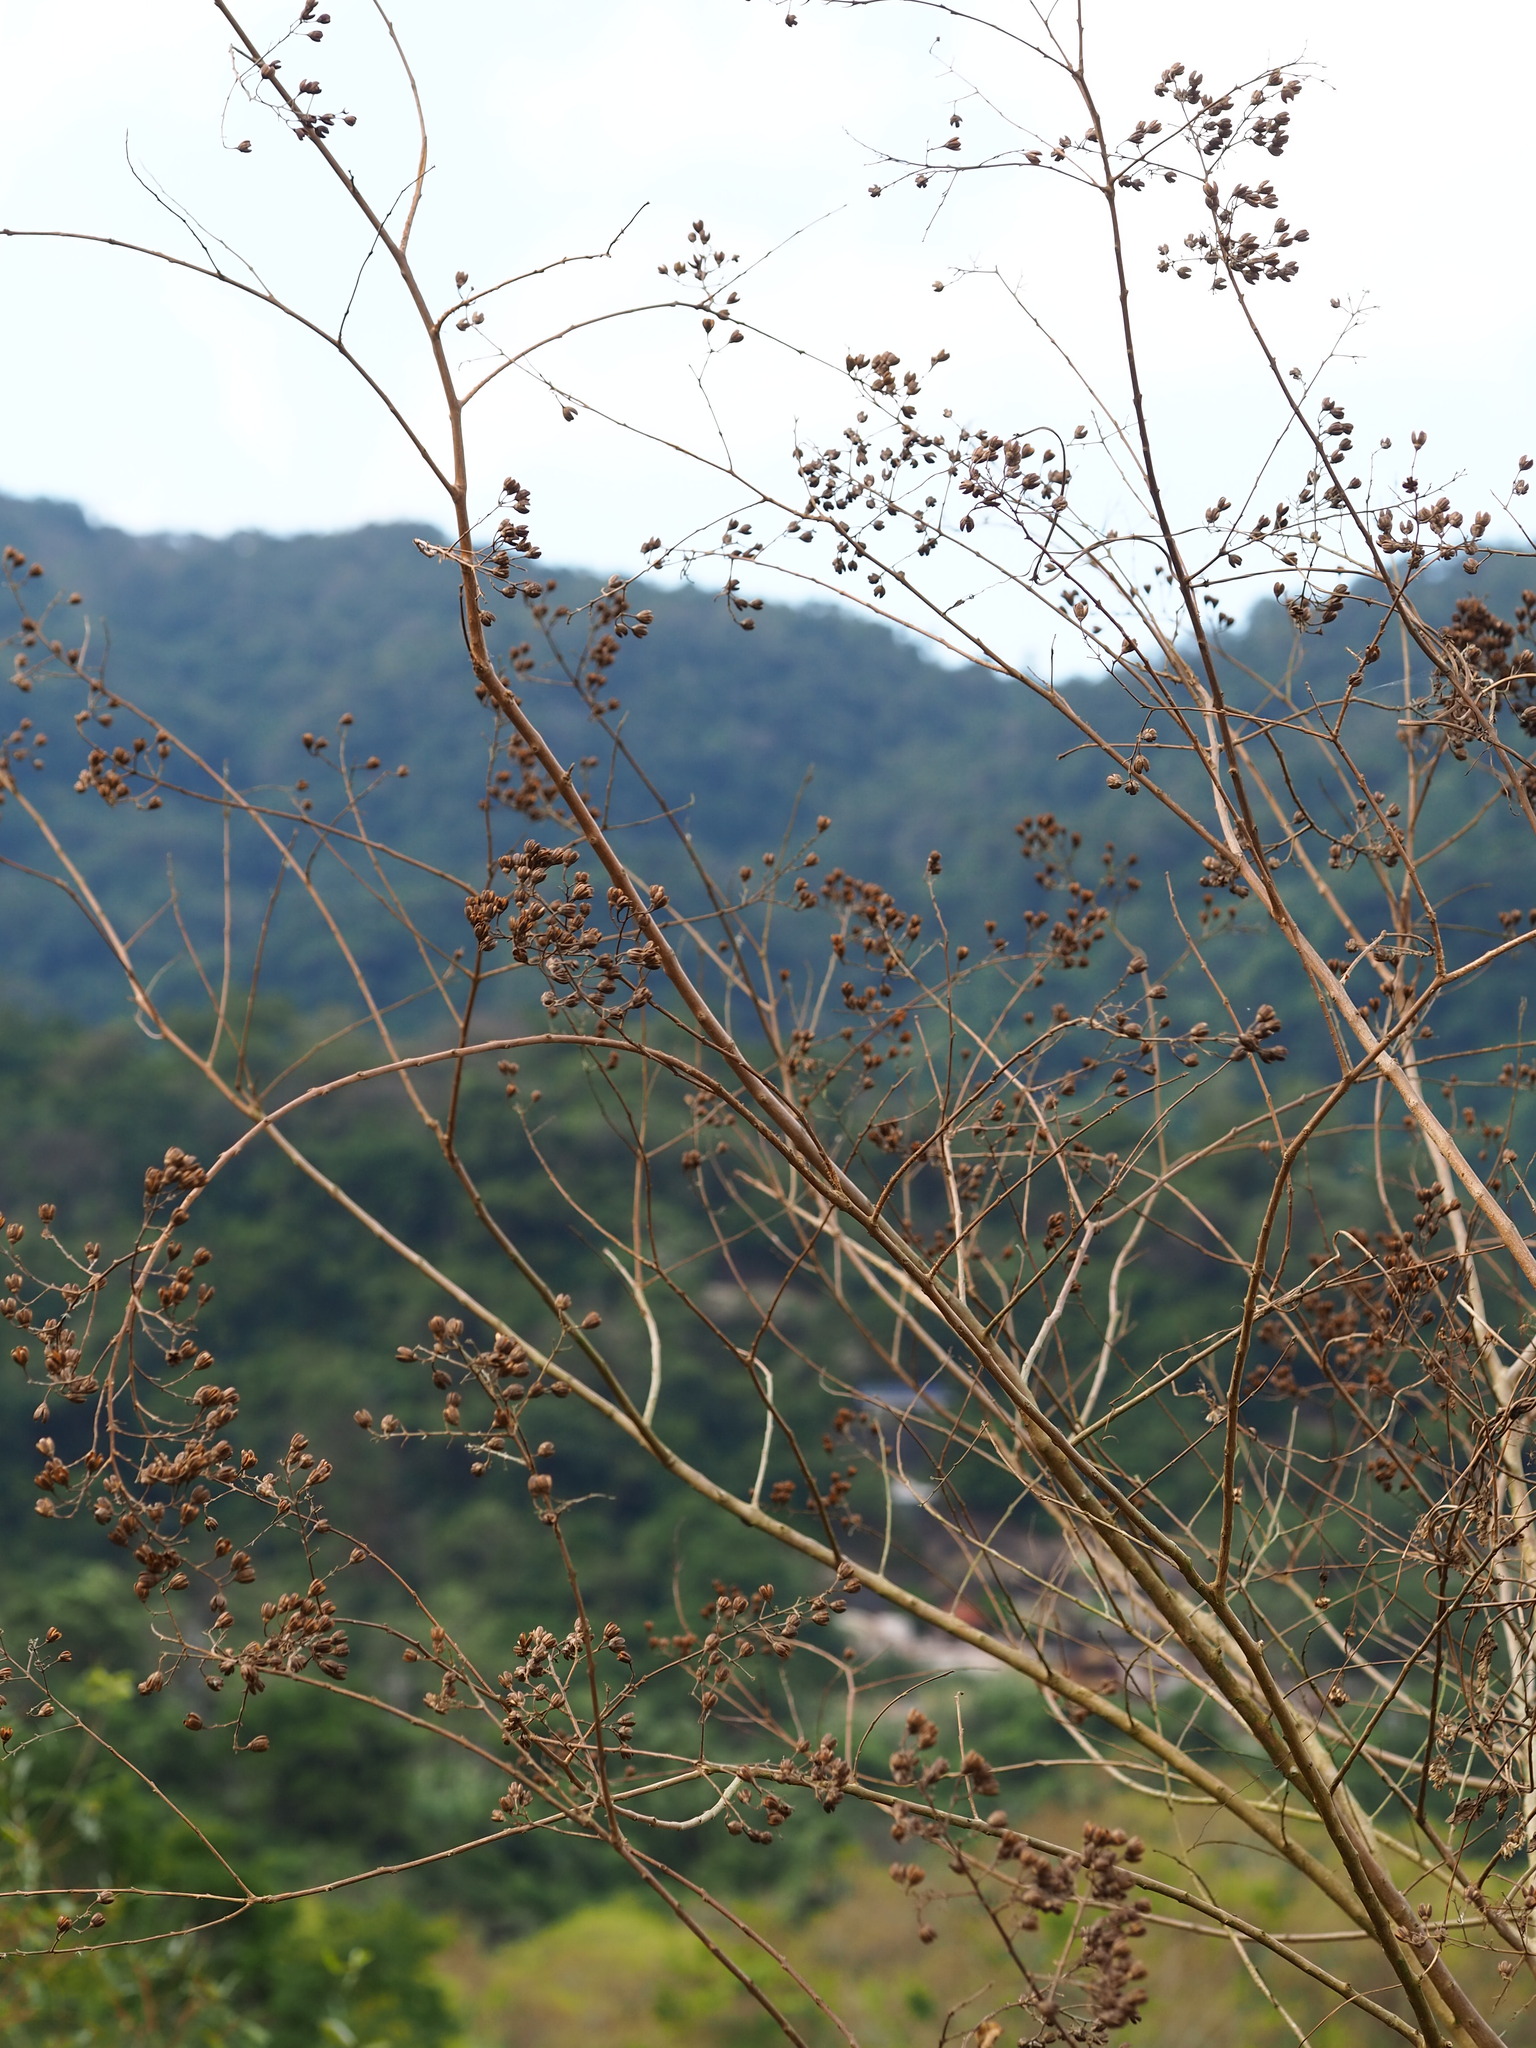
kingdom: Plantae
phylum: Tracheophyta
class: Magnoliopsida
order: Myrtales
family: Lythraceae
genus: Lagerstroemia
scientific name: Lagerstroemia subcostata
